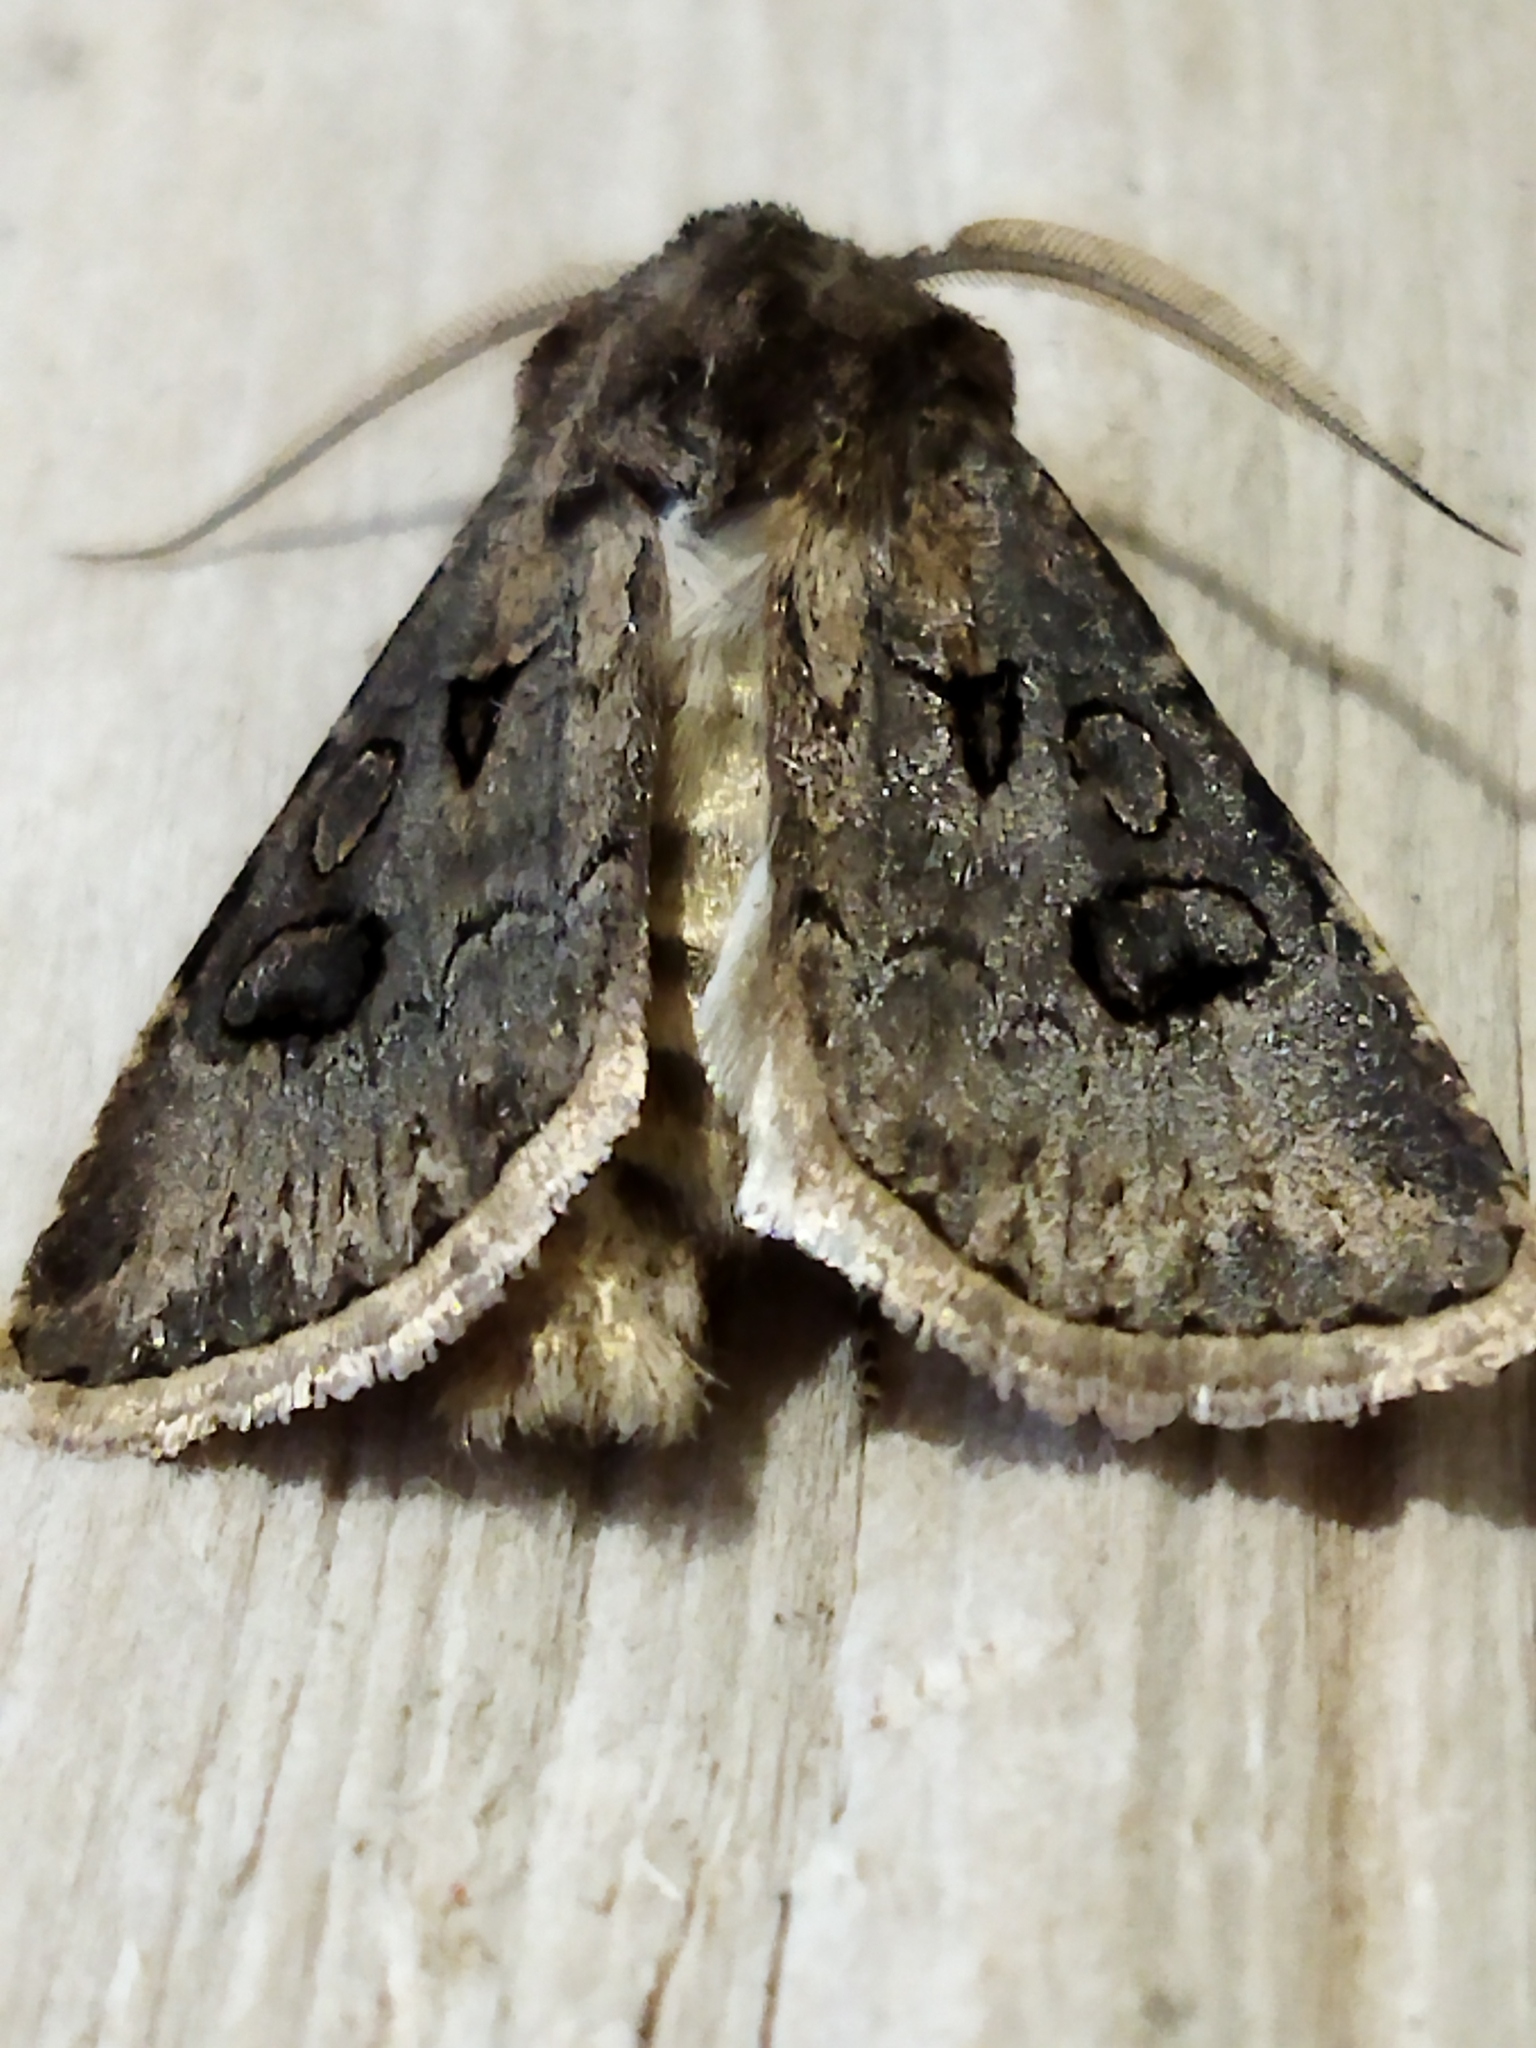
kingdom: Animalia
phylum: Arthropoda
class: Insecta
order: Lepidoptera
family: Noctuidae
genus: Agrotis
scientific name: Agrotis bigramma
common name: Great dart
